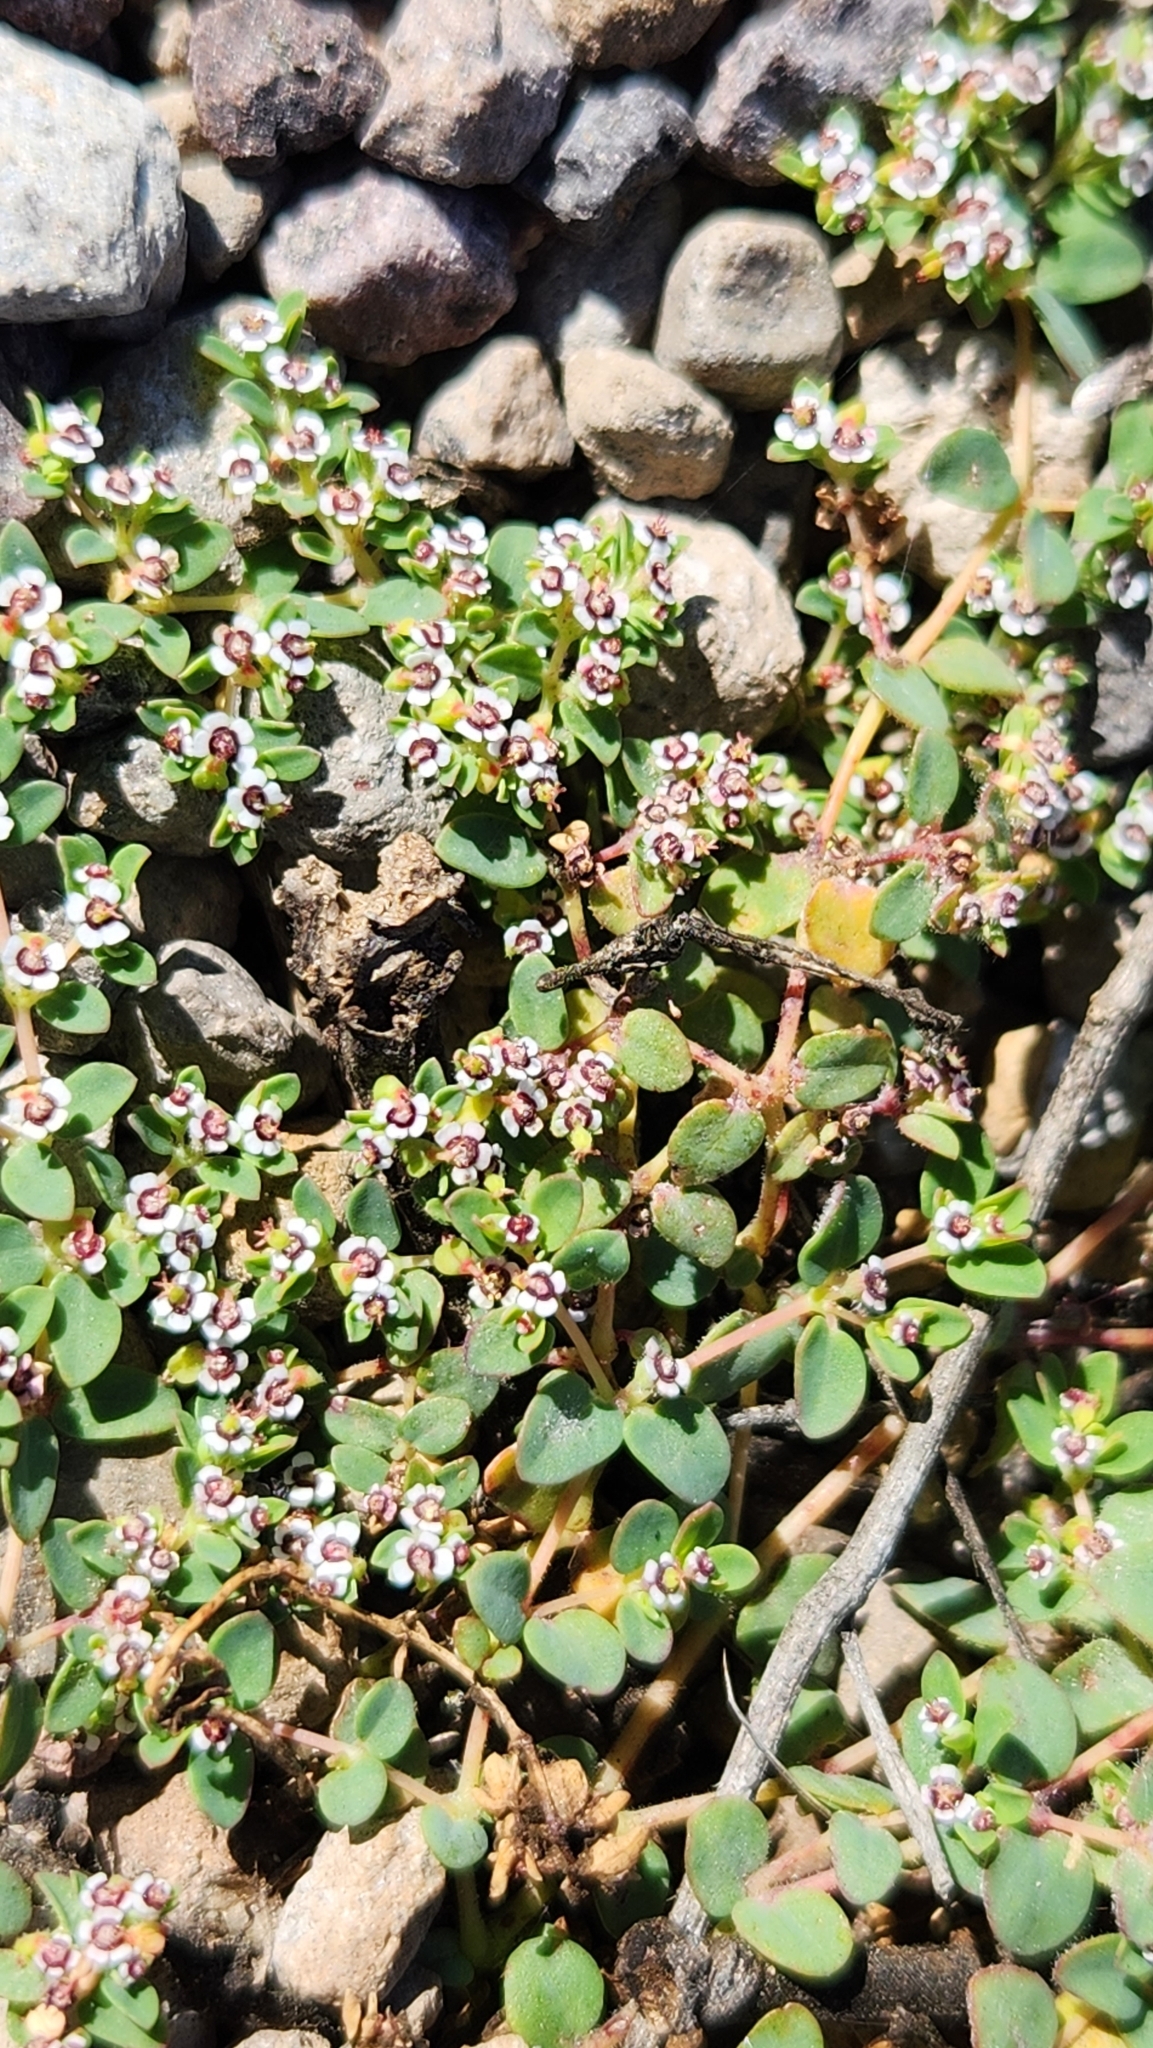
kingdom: Plantae
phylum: Tracheophyta
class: Magnoliopsida
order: Malpighiales
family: Euphorbiaceae
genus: Euphorbia
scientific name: Euphorbia polycarpa
